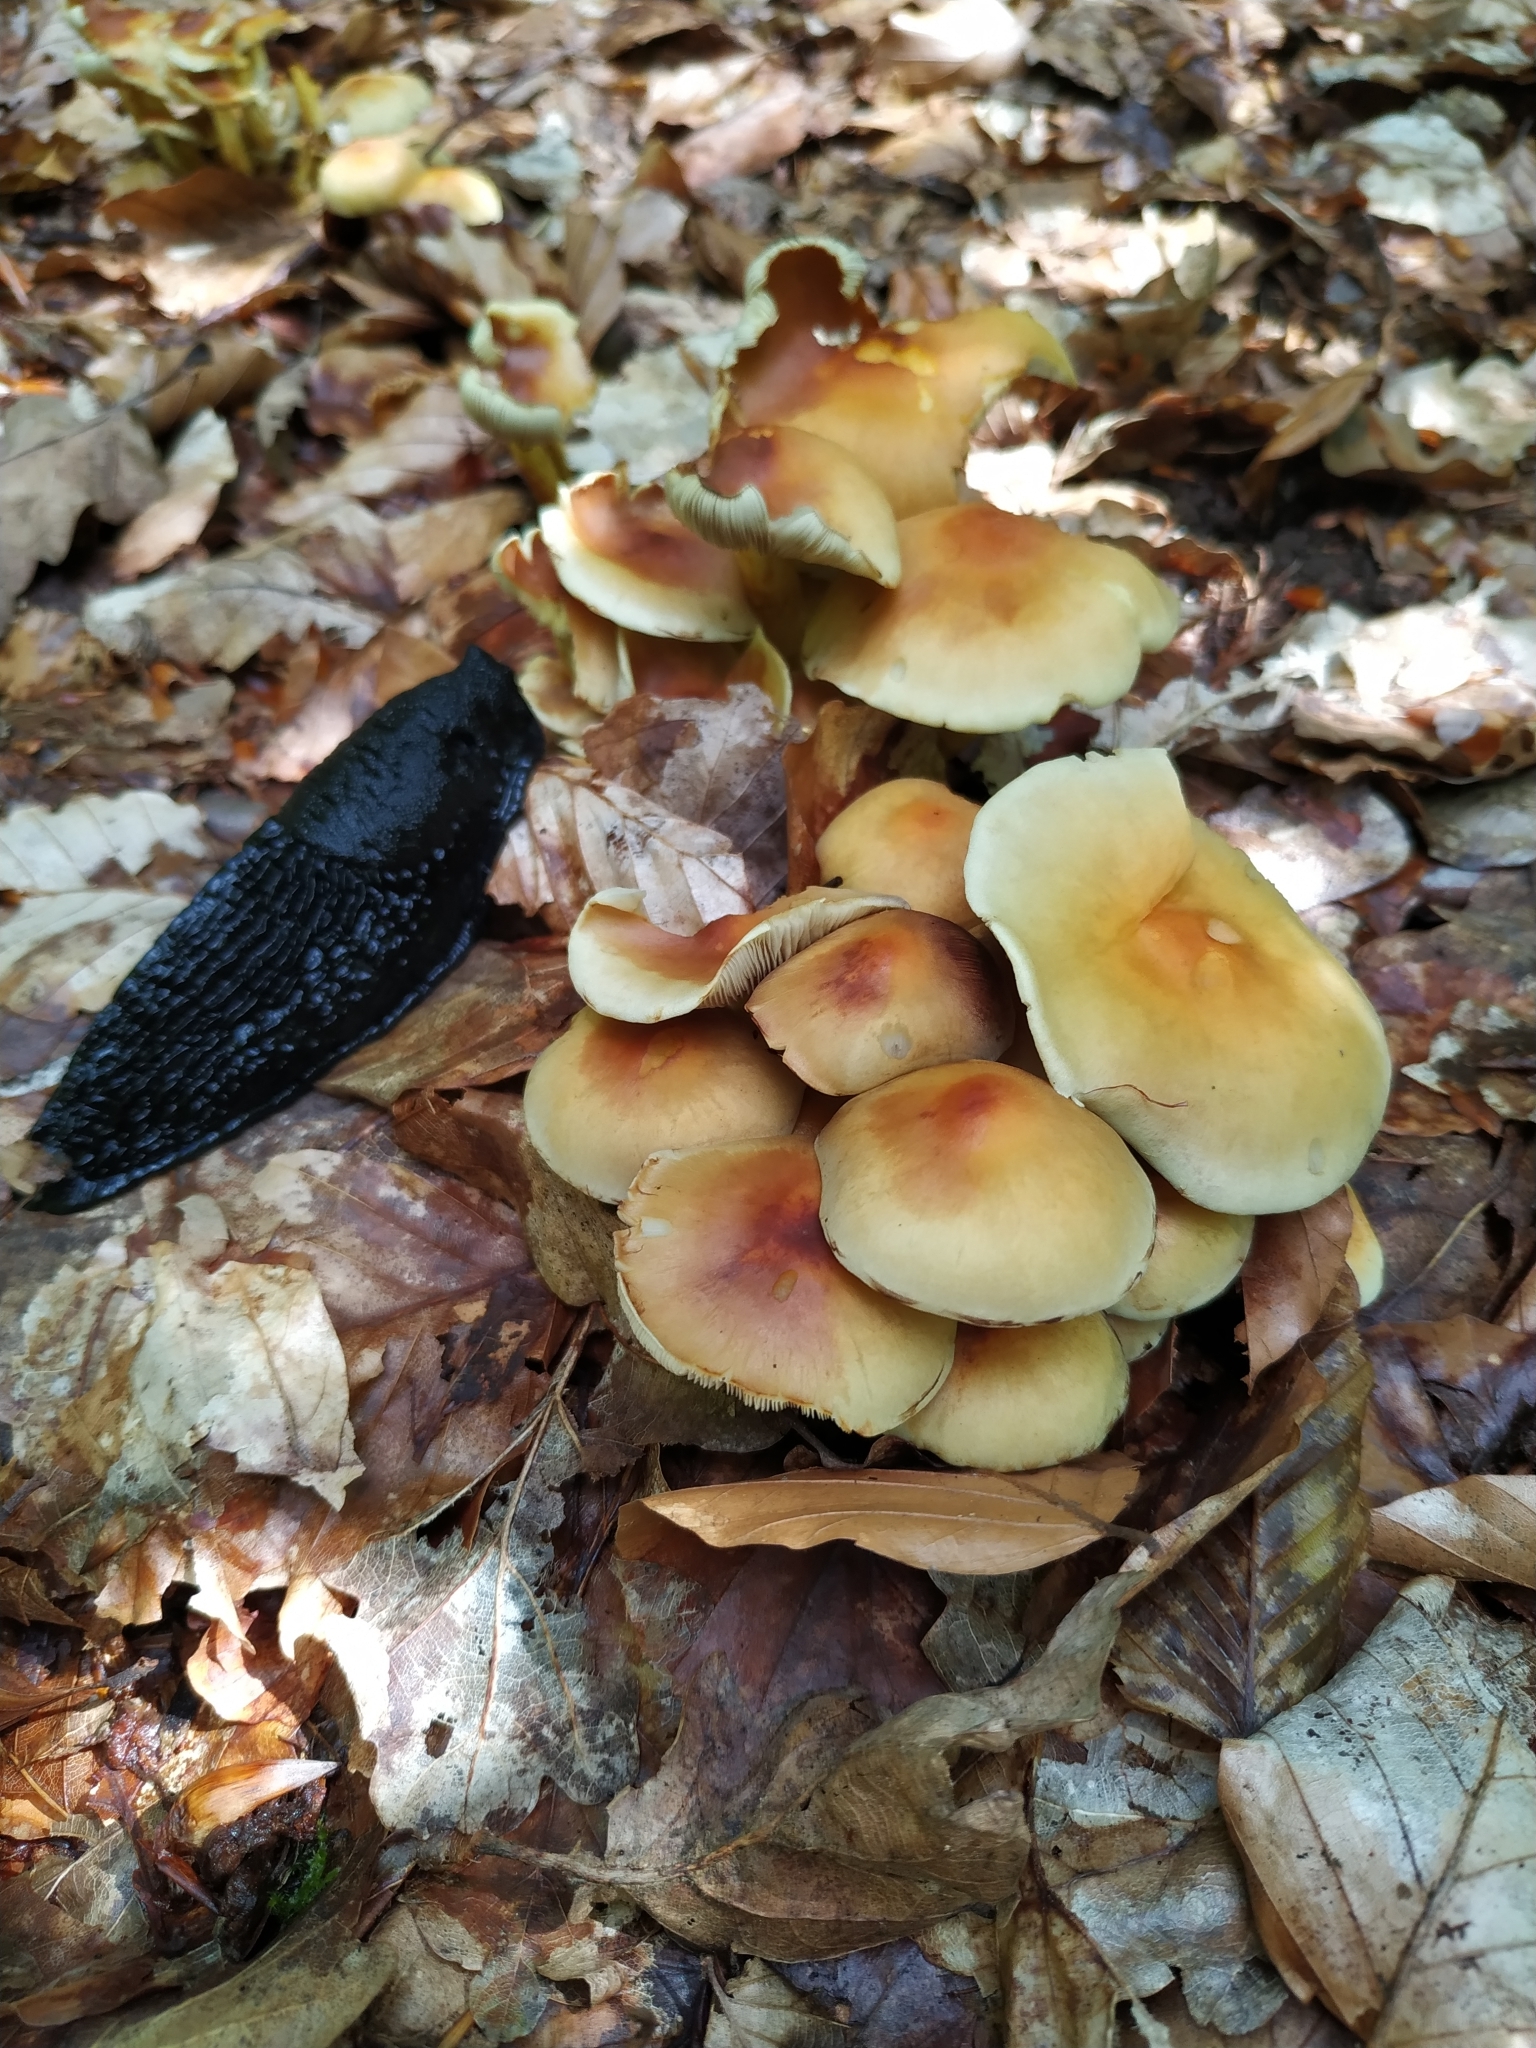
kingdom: Fungi
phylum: Basidiomycota
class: Agaricomycetes
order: Agaricales
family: Strophariaceae
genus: Hypholoma
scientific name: Hypholoma fasciculare
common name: Sulphur tuft
